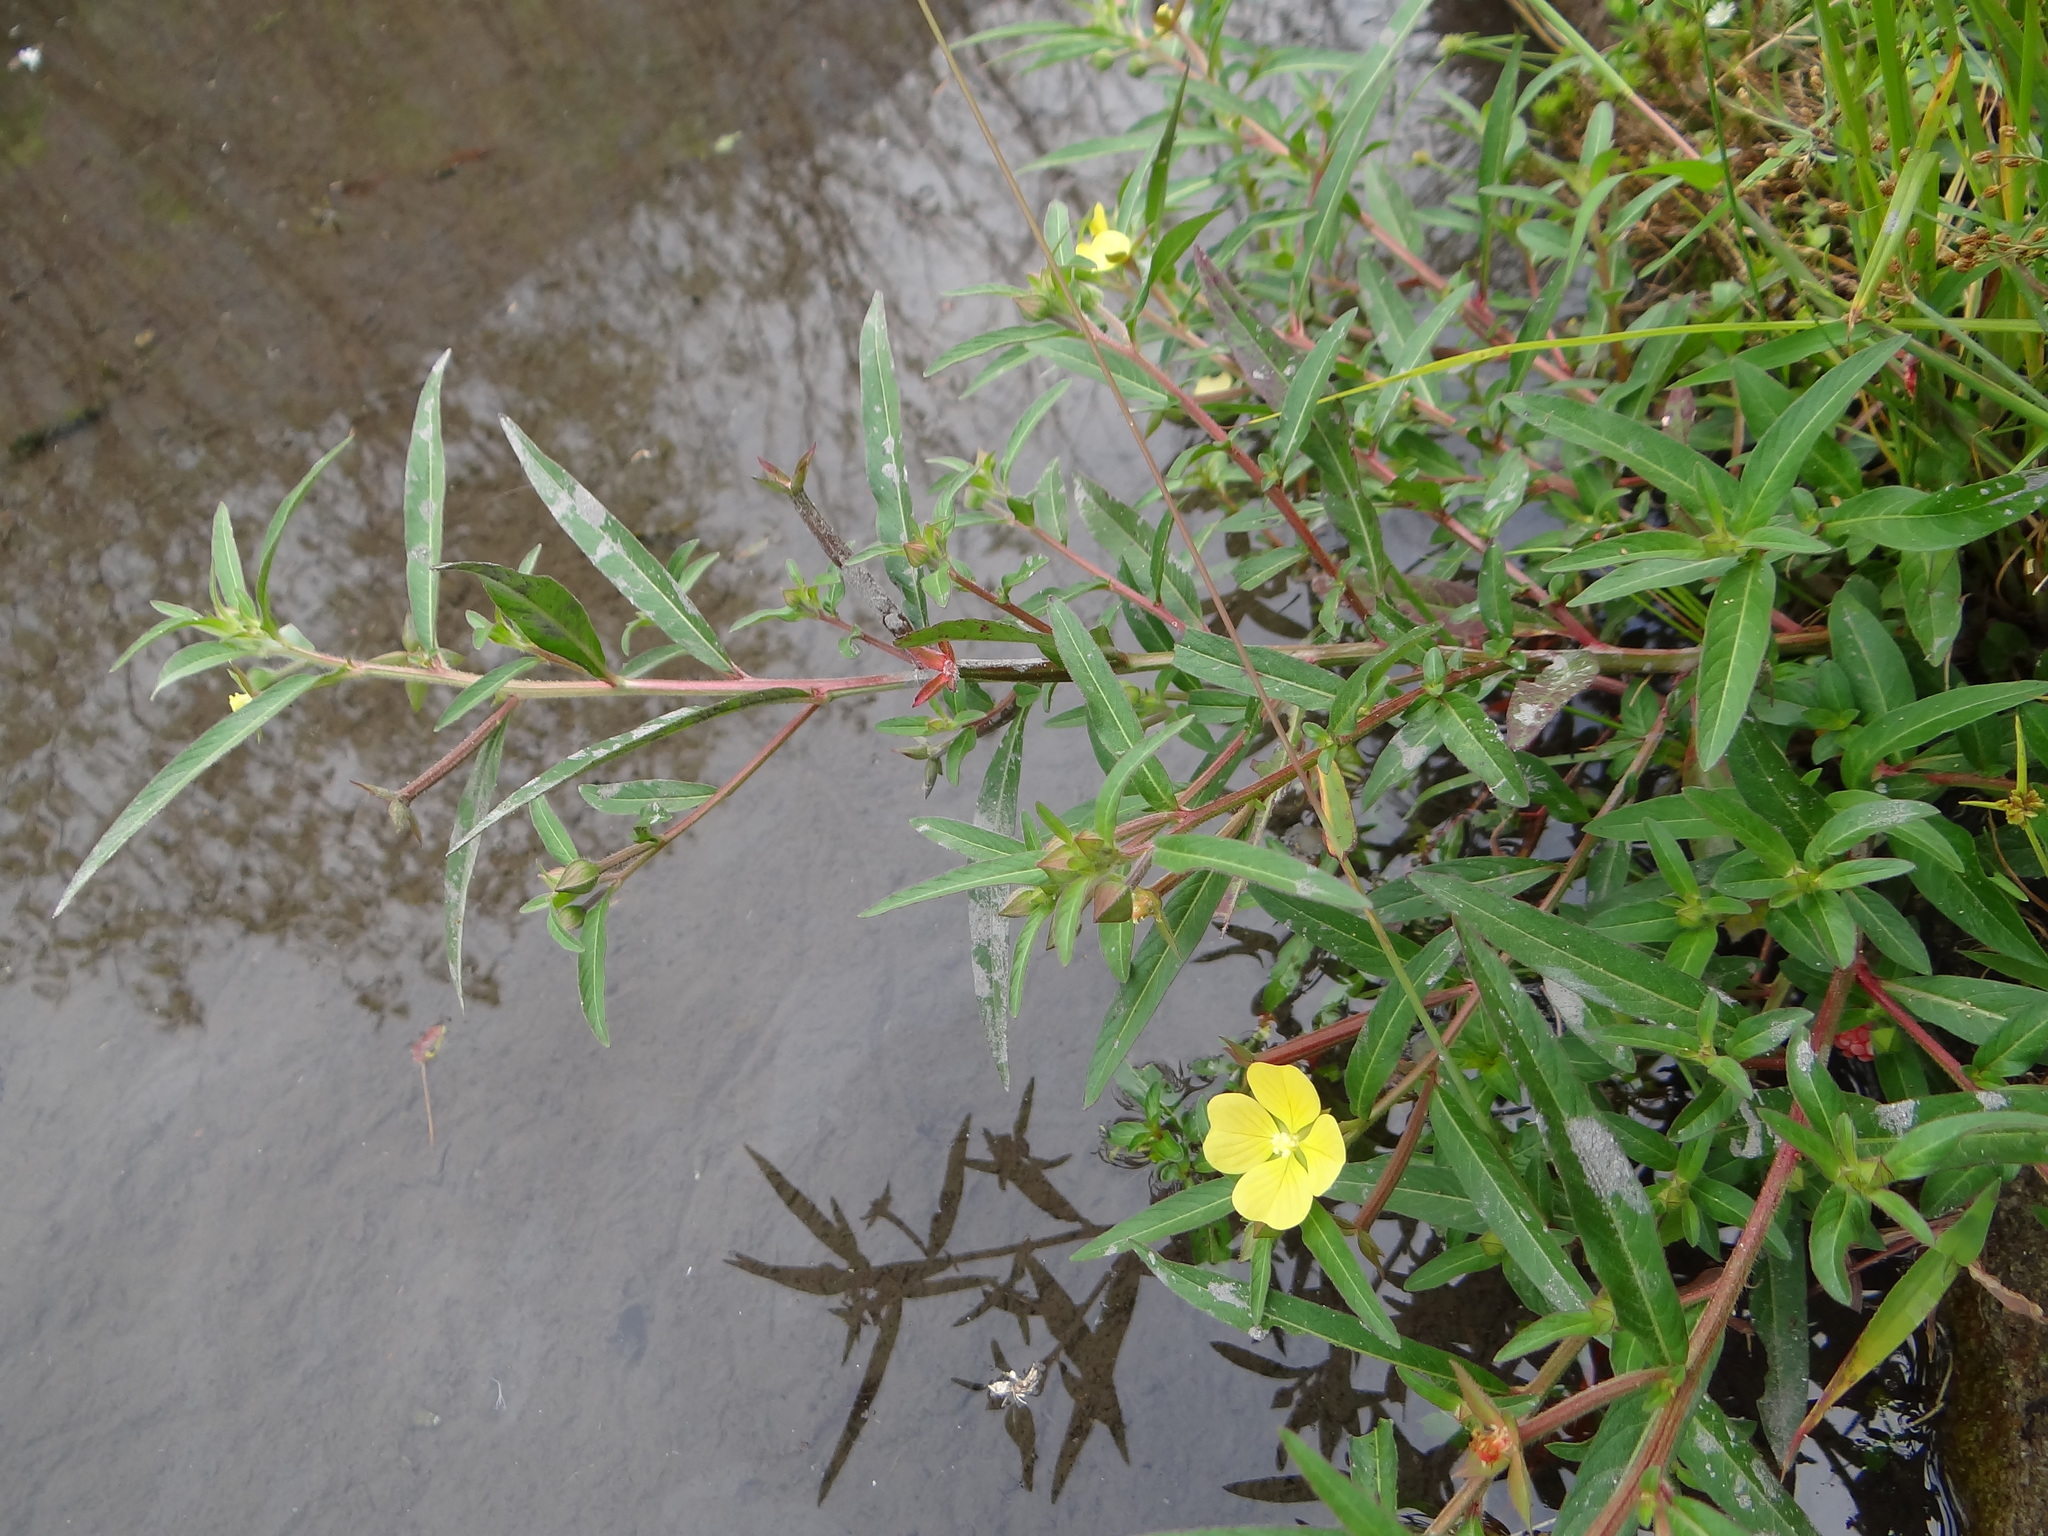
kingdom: Plantae
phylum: Tracheophyta
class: Magnoliopsida
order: Myrtales
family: Onagraceae
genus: Ludwigia
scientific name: Ludwigia octovalvis
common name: Water-primrose
